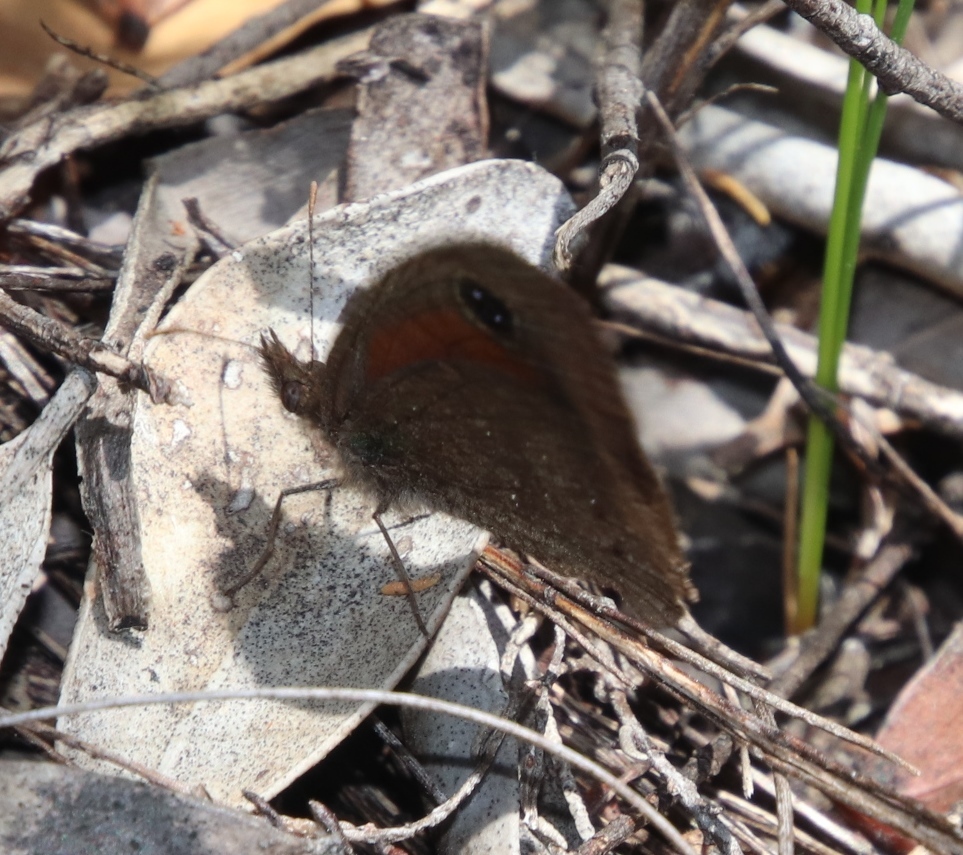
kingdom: Animalia
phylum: Arthropoda
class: Insecta
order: Lepidoptera
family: Nymphalidae
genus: Pseudonympha
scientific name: Pseudonympha detecta
